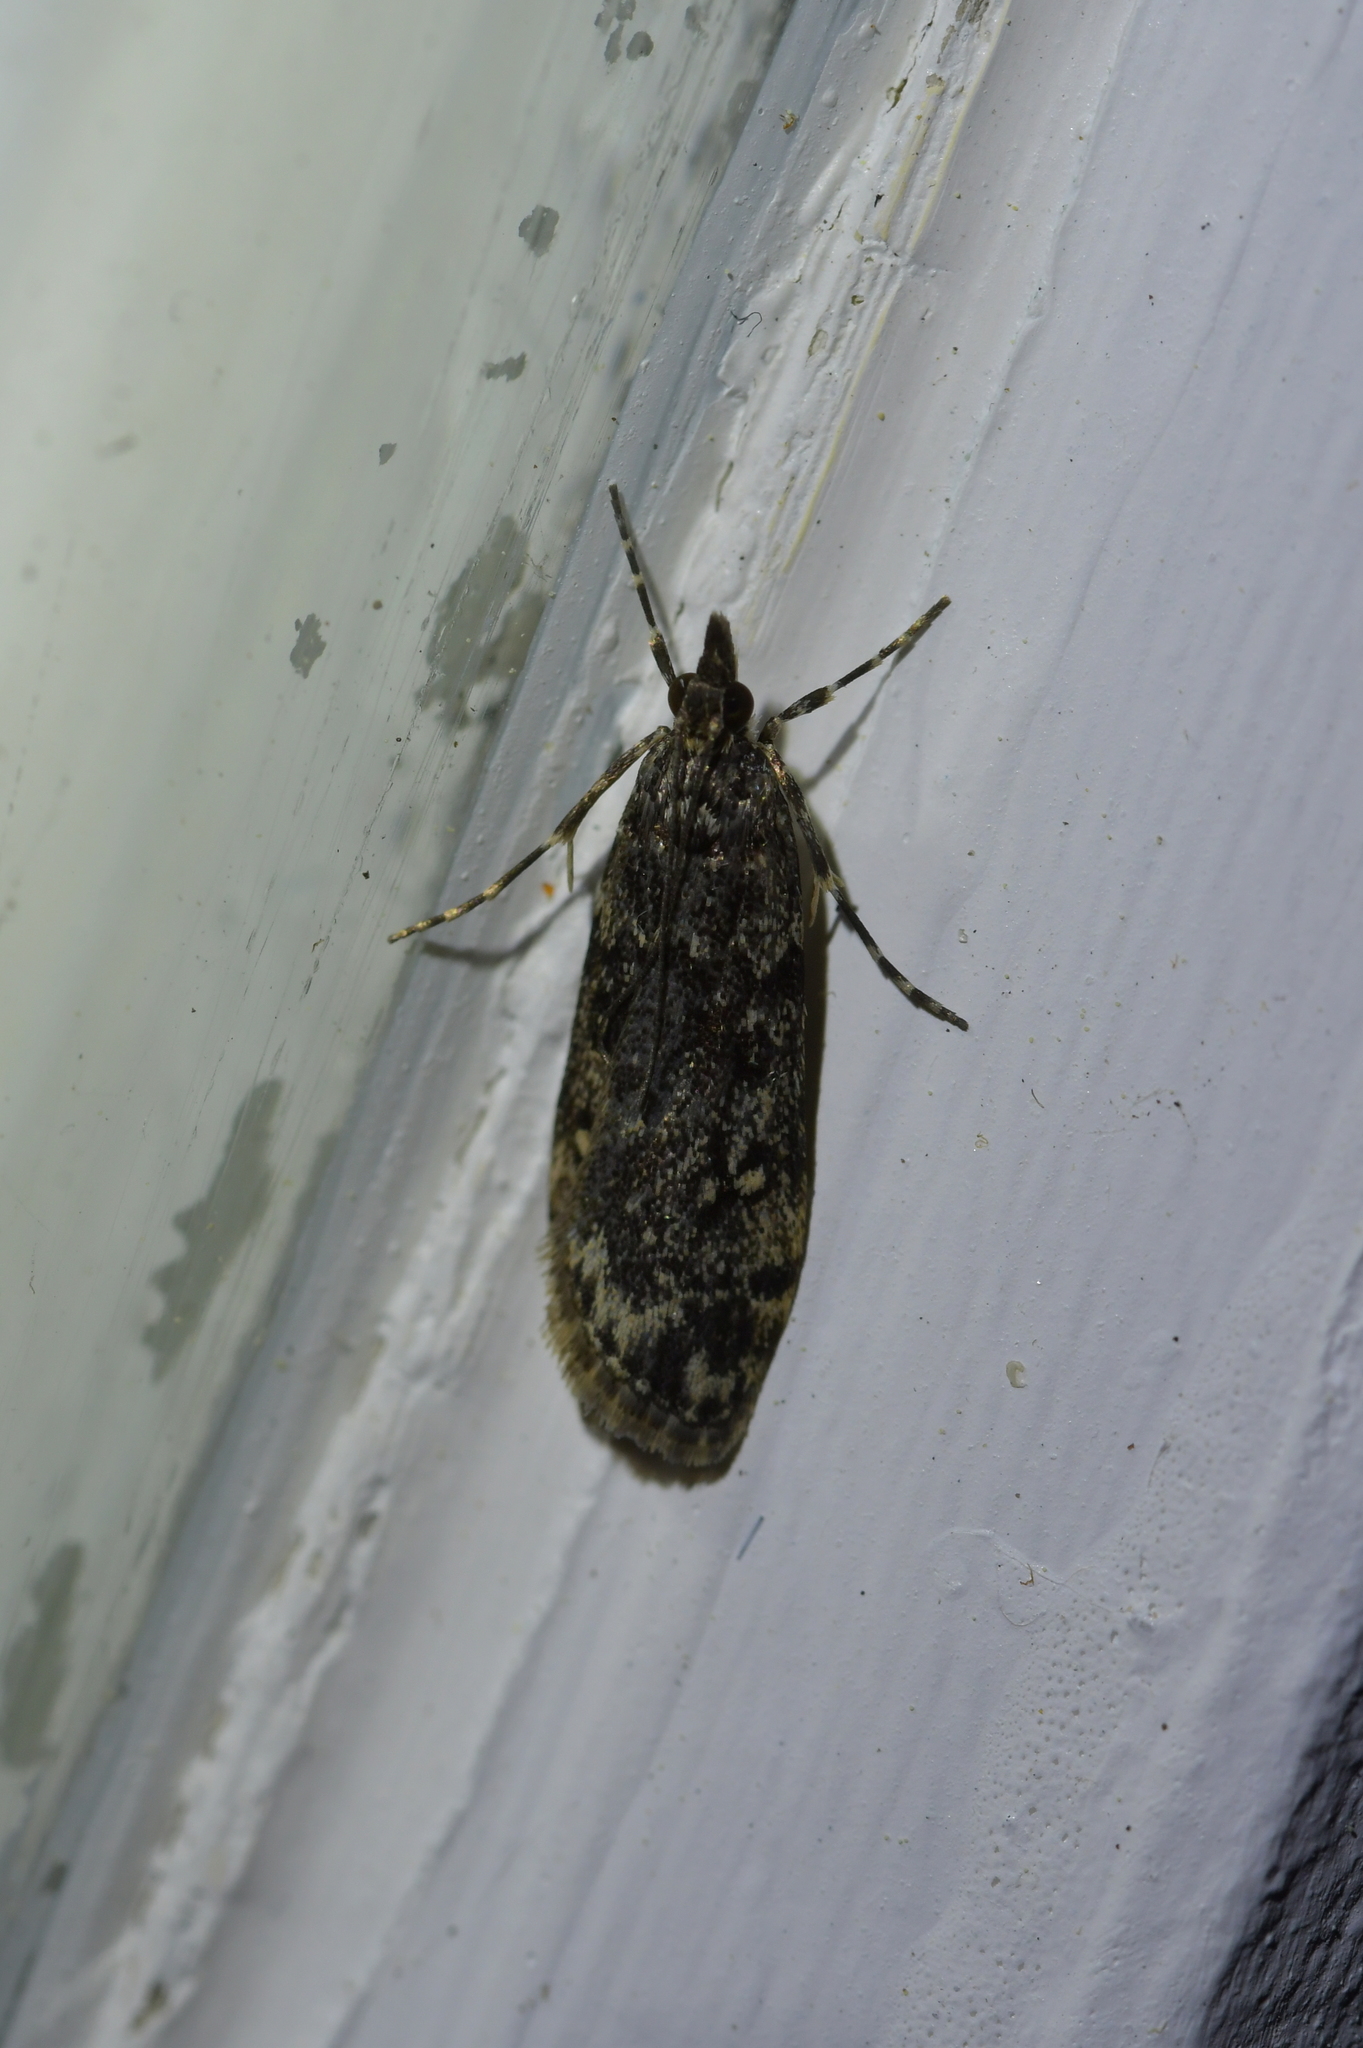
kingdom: Animalia
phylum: Arthropoda
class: Insecta
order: Lepidoptera
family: Crambidae
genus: Eudonia
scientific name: Eudonia philerga
